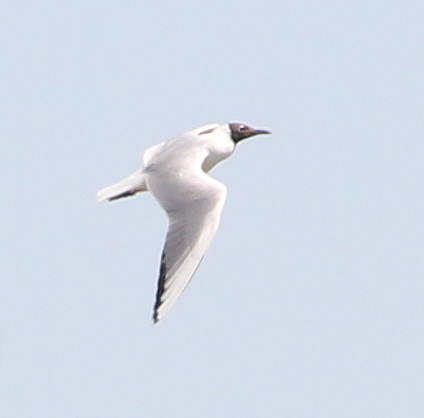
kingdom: Animalia
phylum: Chordata
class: Aves
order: Charadriiformes
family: Laridae
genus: Chroicocephalus
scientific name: Chroicocephalus ridibundus
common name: Black-headed gull
